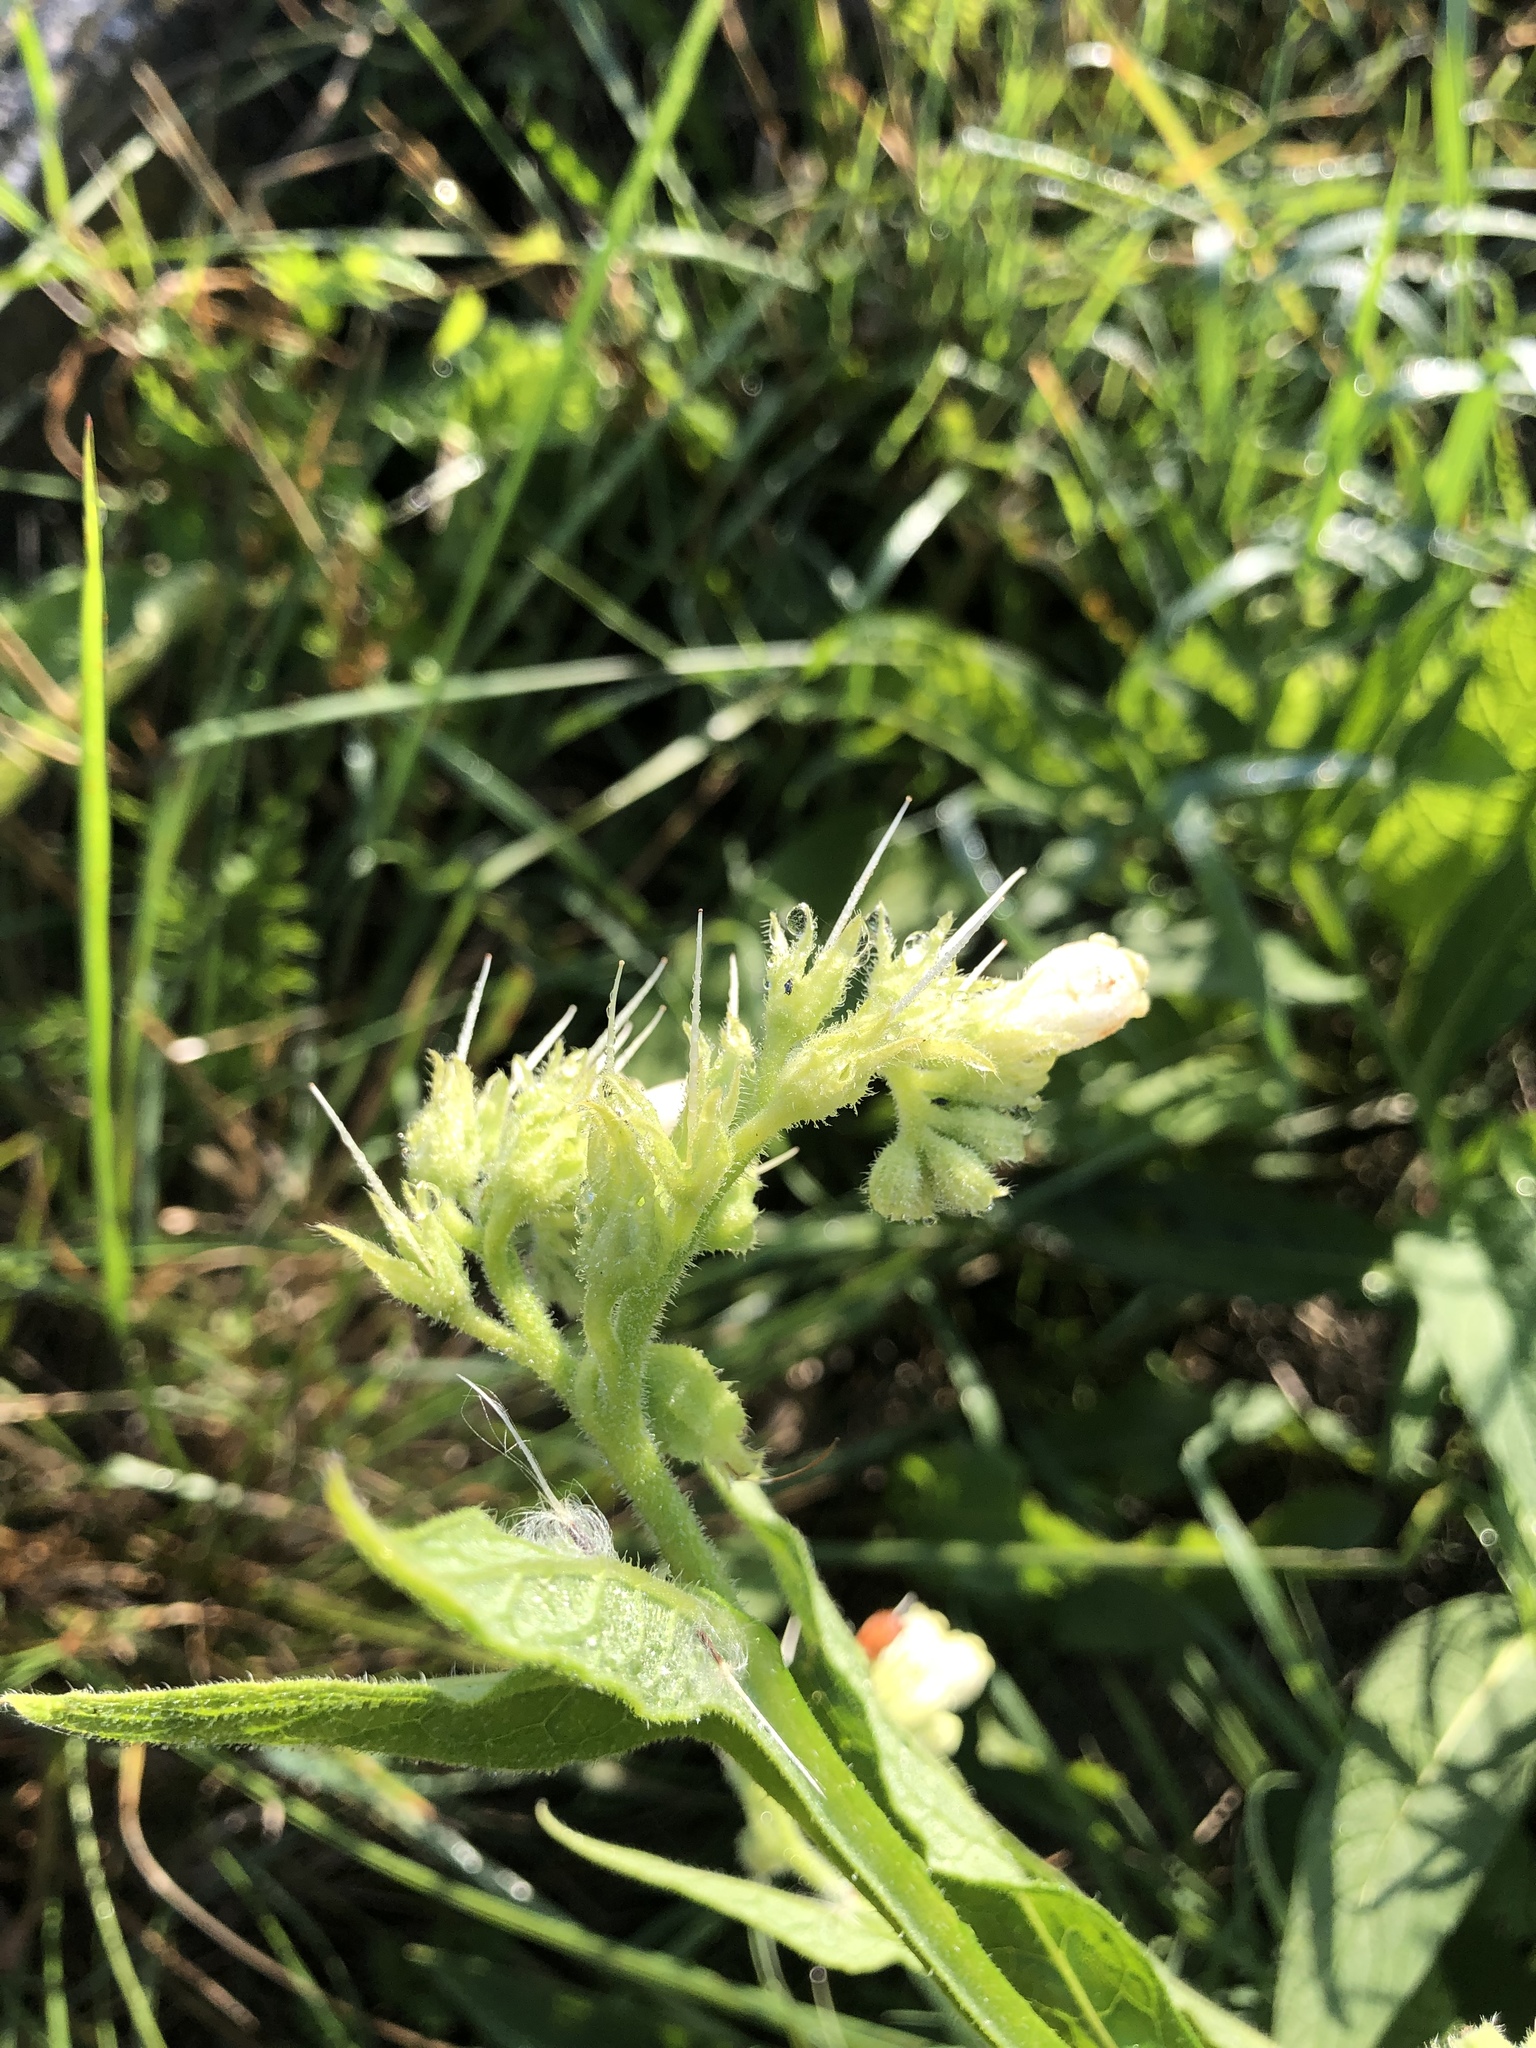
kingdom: Plantae
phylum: Tracheophyta
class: Magnoliopsida
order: Boraginales
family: Boraginaceae
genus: Symphytum
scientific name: Symphytum officinale
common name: Common comfrey
